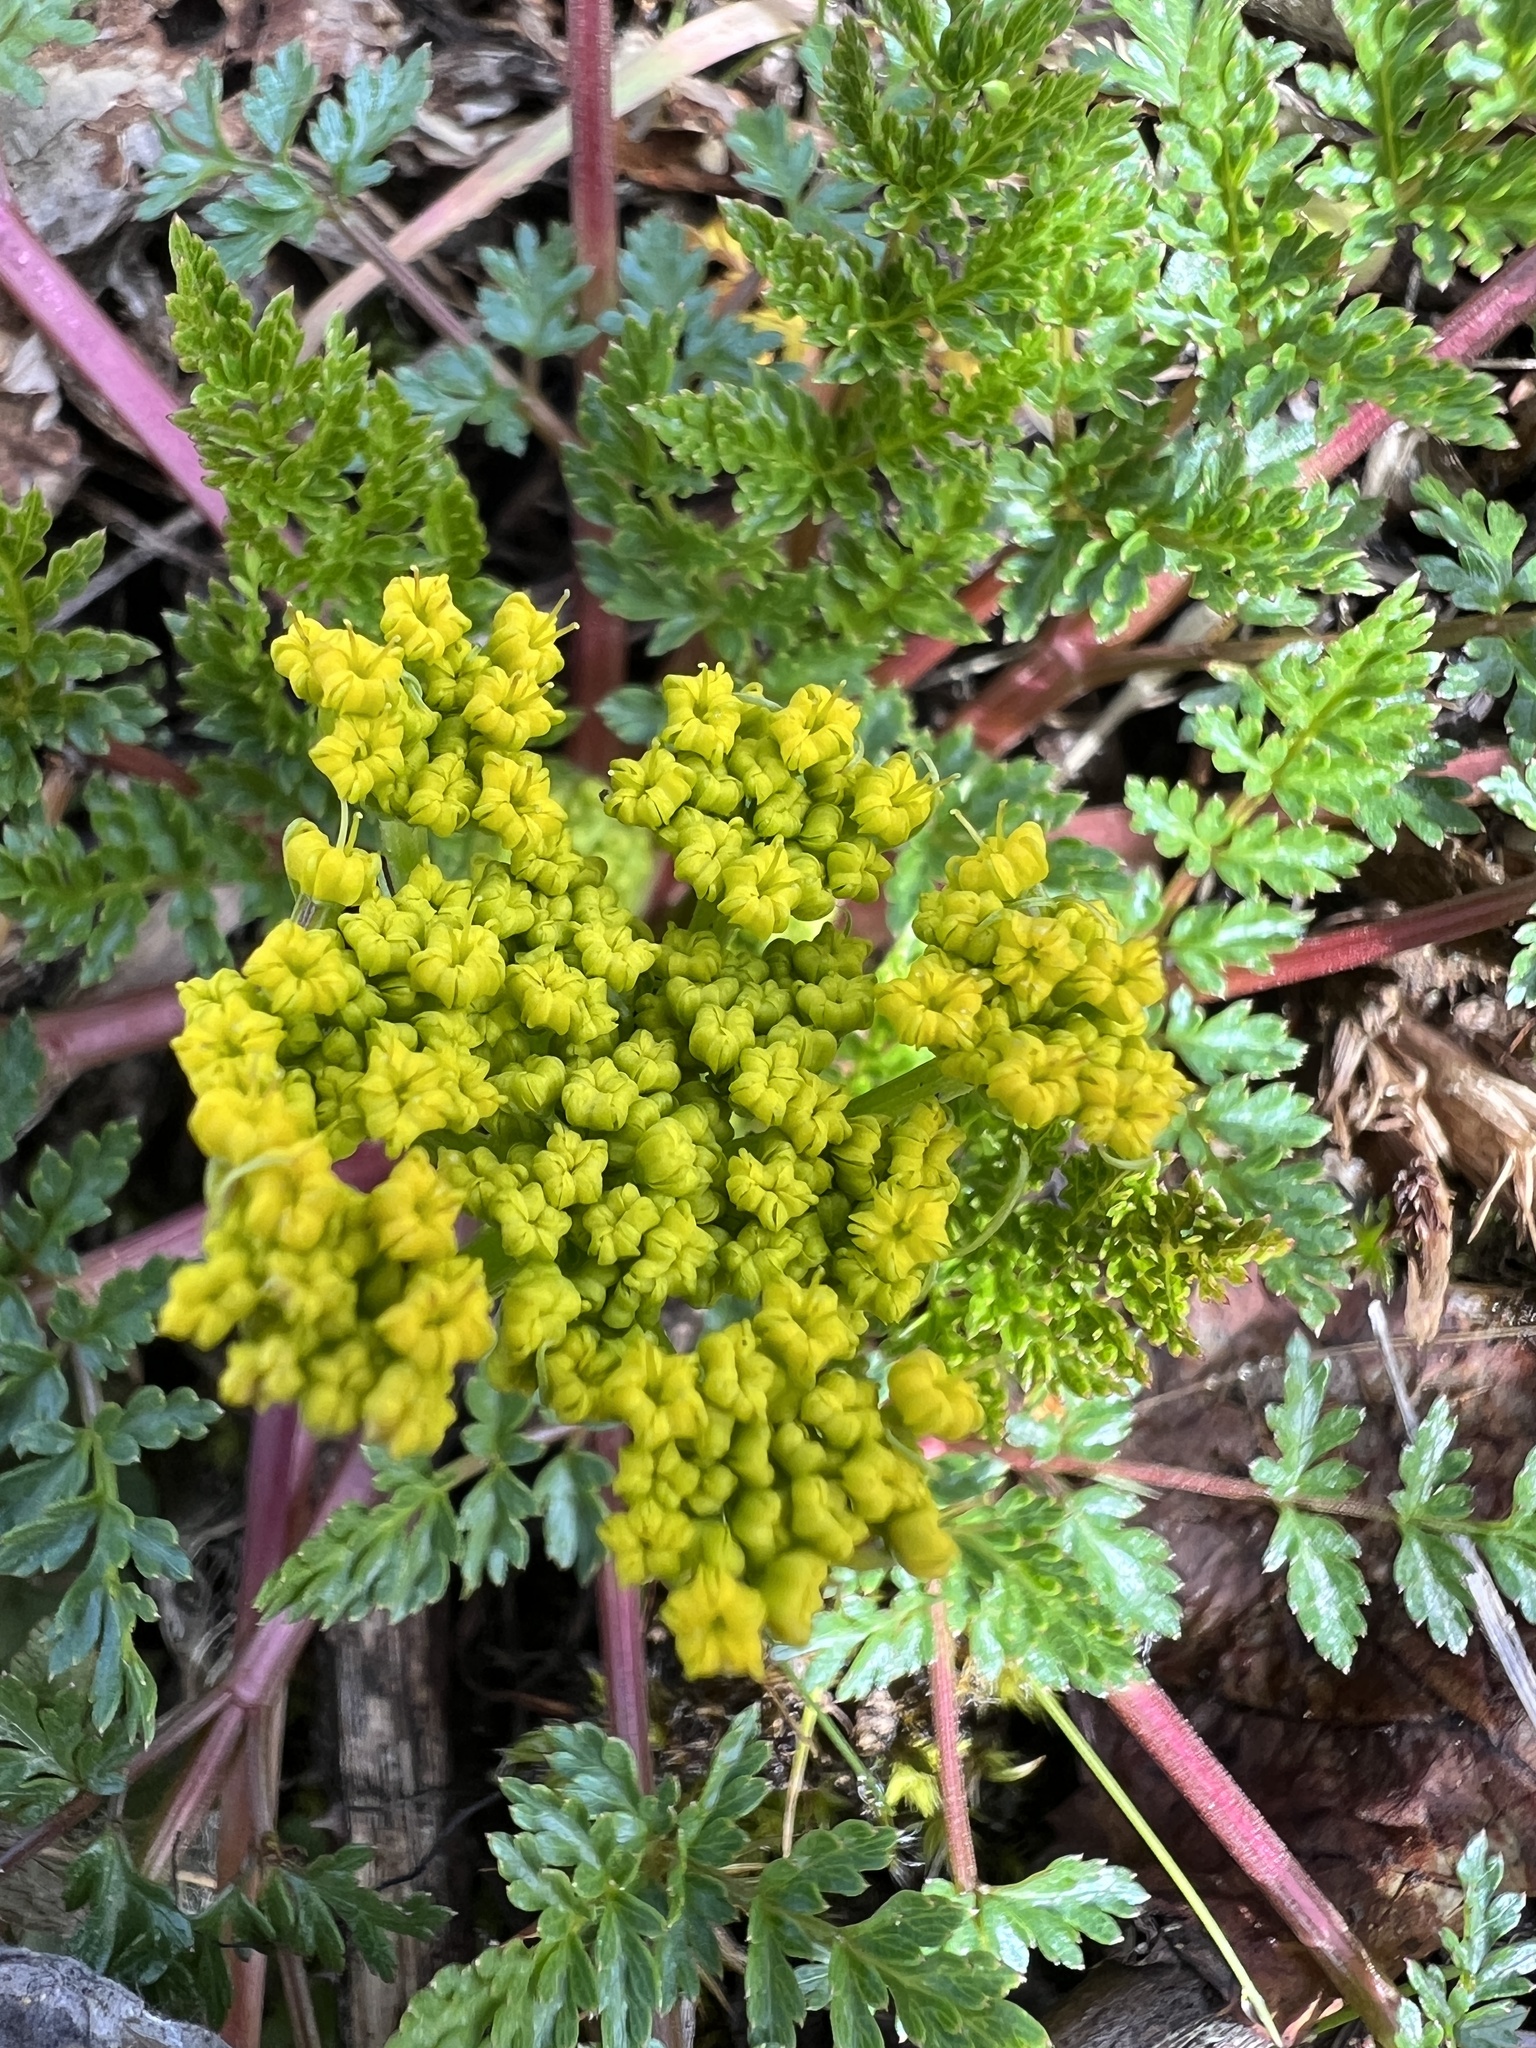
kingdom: Plantae
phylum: Tracheophyta
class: Magnoliopsida
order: Apiales
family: Apiaceae
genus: Lomatium
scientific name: Lomatium hallii
